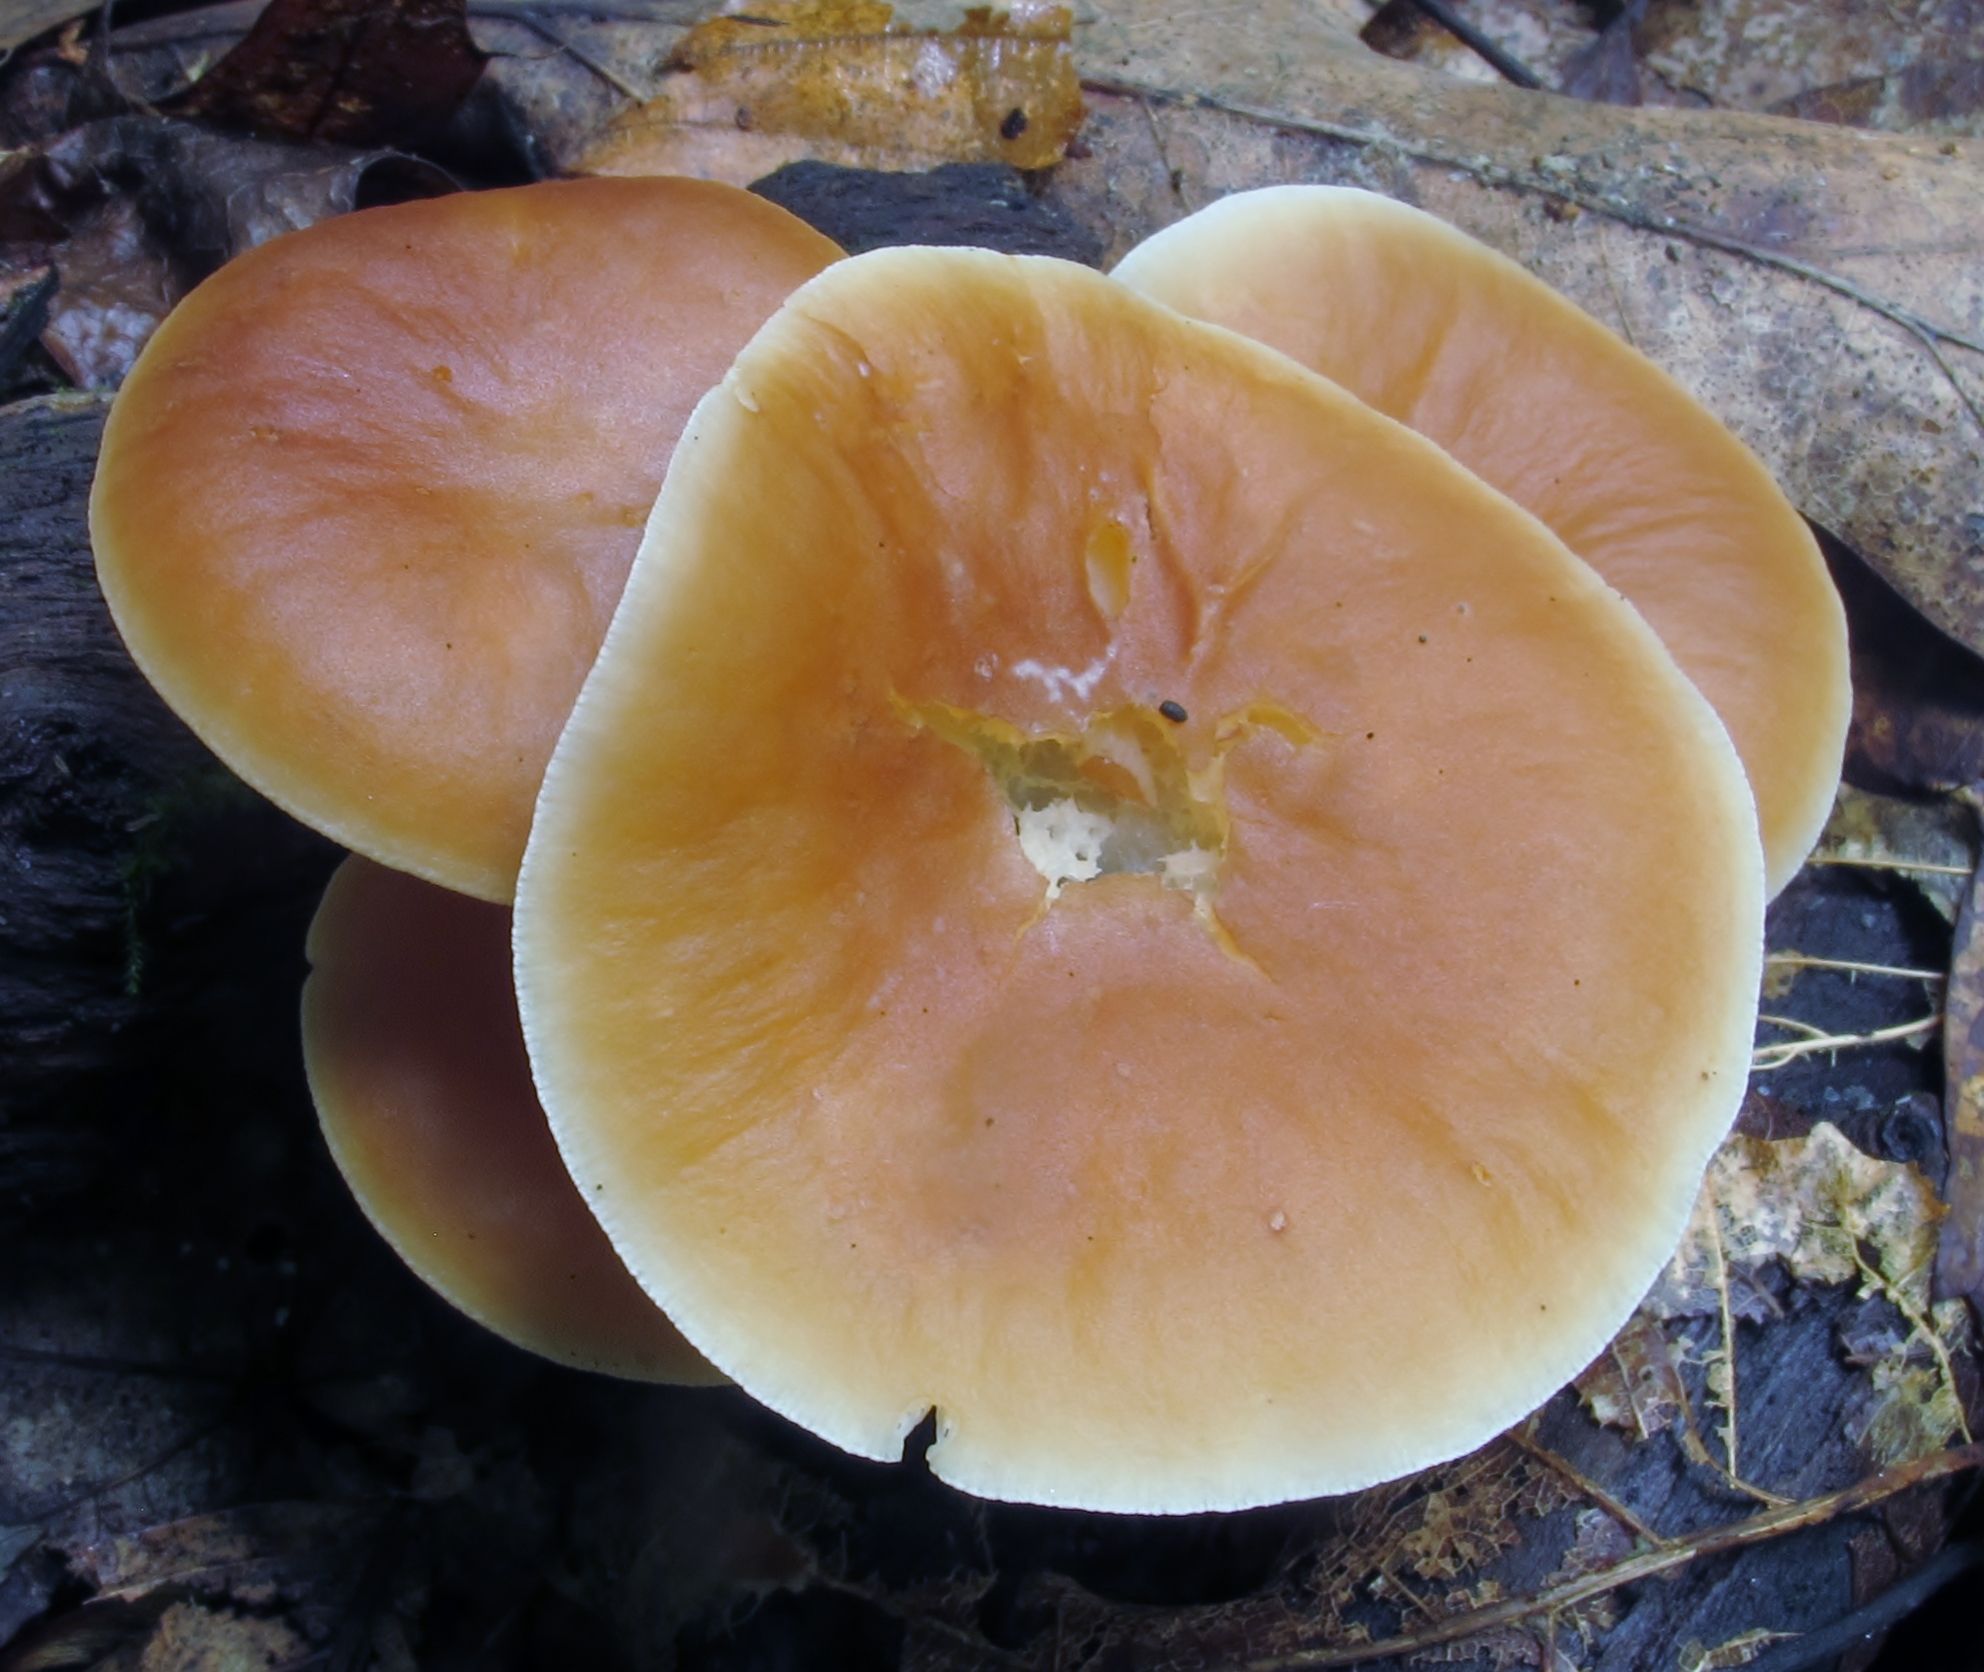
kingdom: Fungi
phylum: Basidiomycota
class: Agaricomycetes
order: Agaricales
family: Omphalotaceae
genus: Gymnopus
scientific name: Gymnopus dryophilus
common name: Penny top
